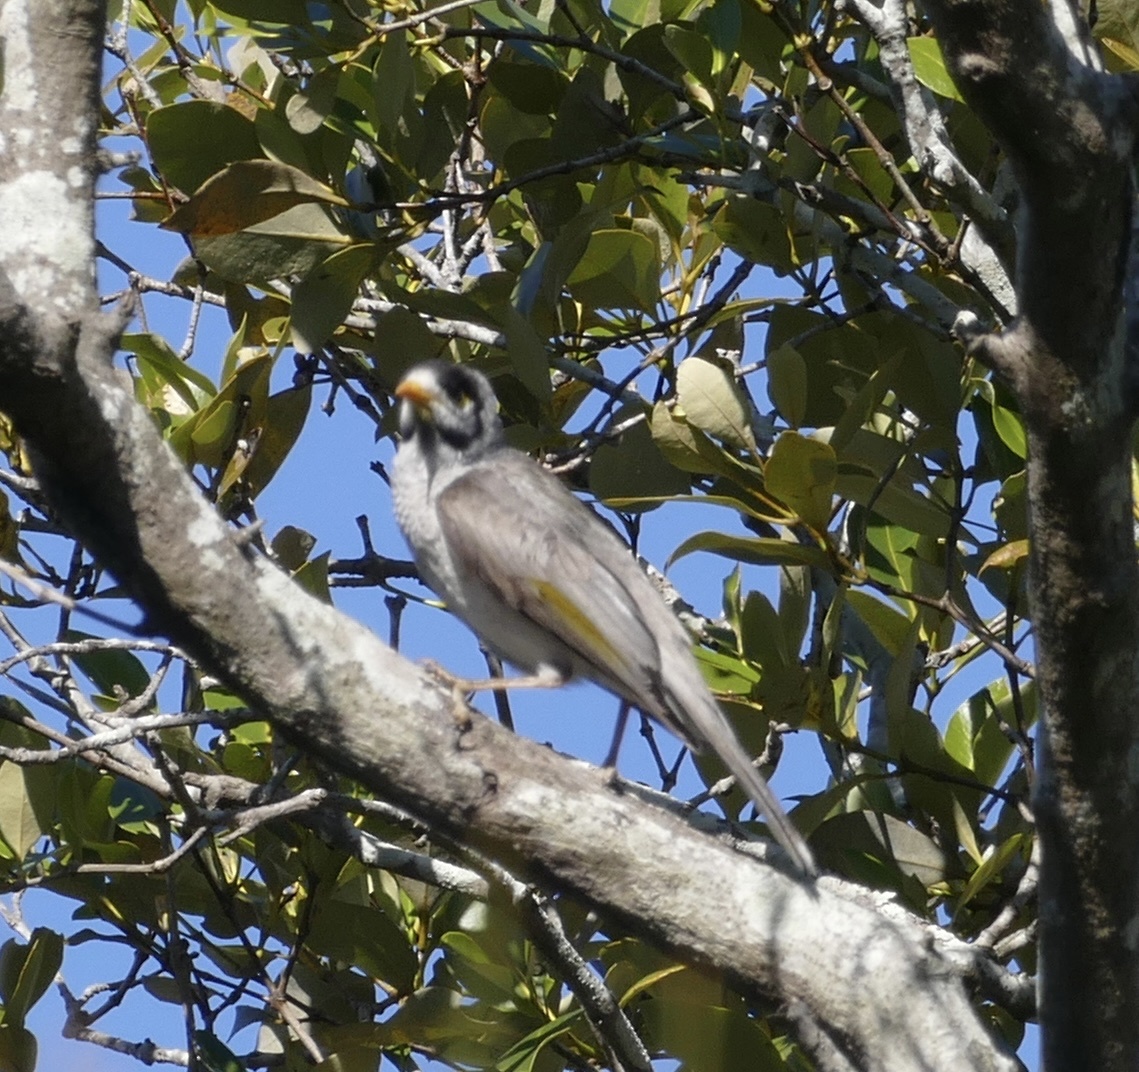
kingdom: Animalia
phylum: Chordata
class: Aves
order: Passeriformes
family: Meliphagidae
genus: Manorina
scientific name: Manorina melanocephala
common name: Noisy miner
